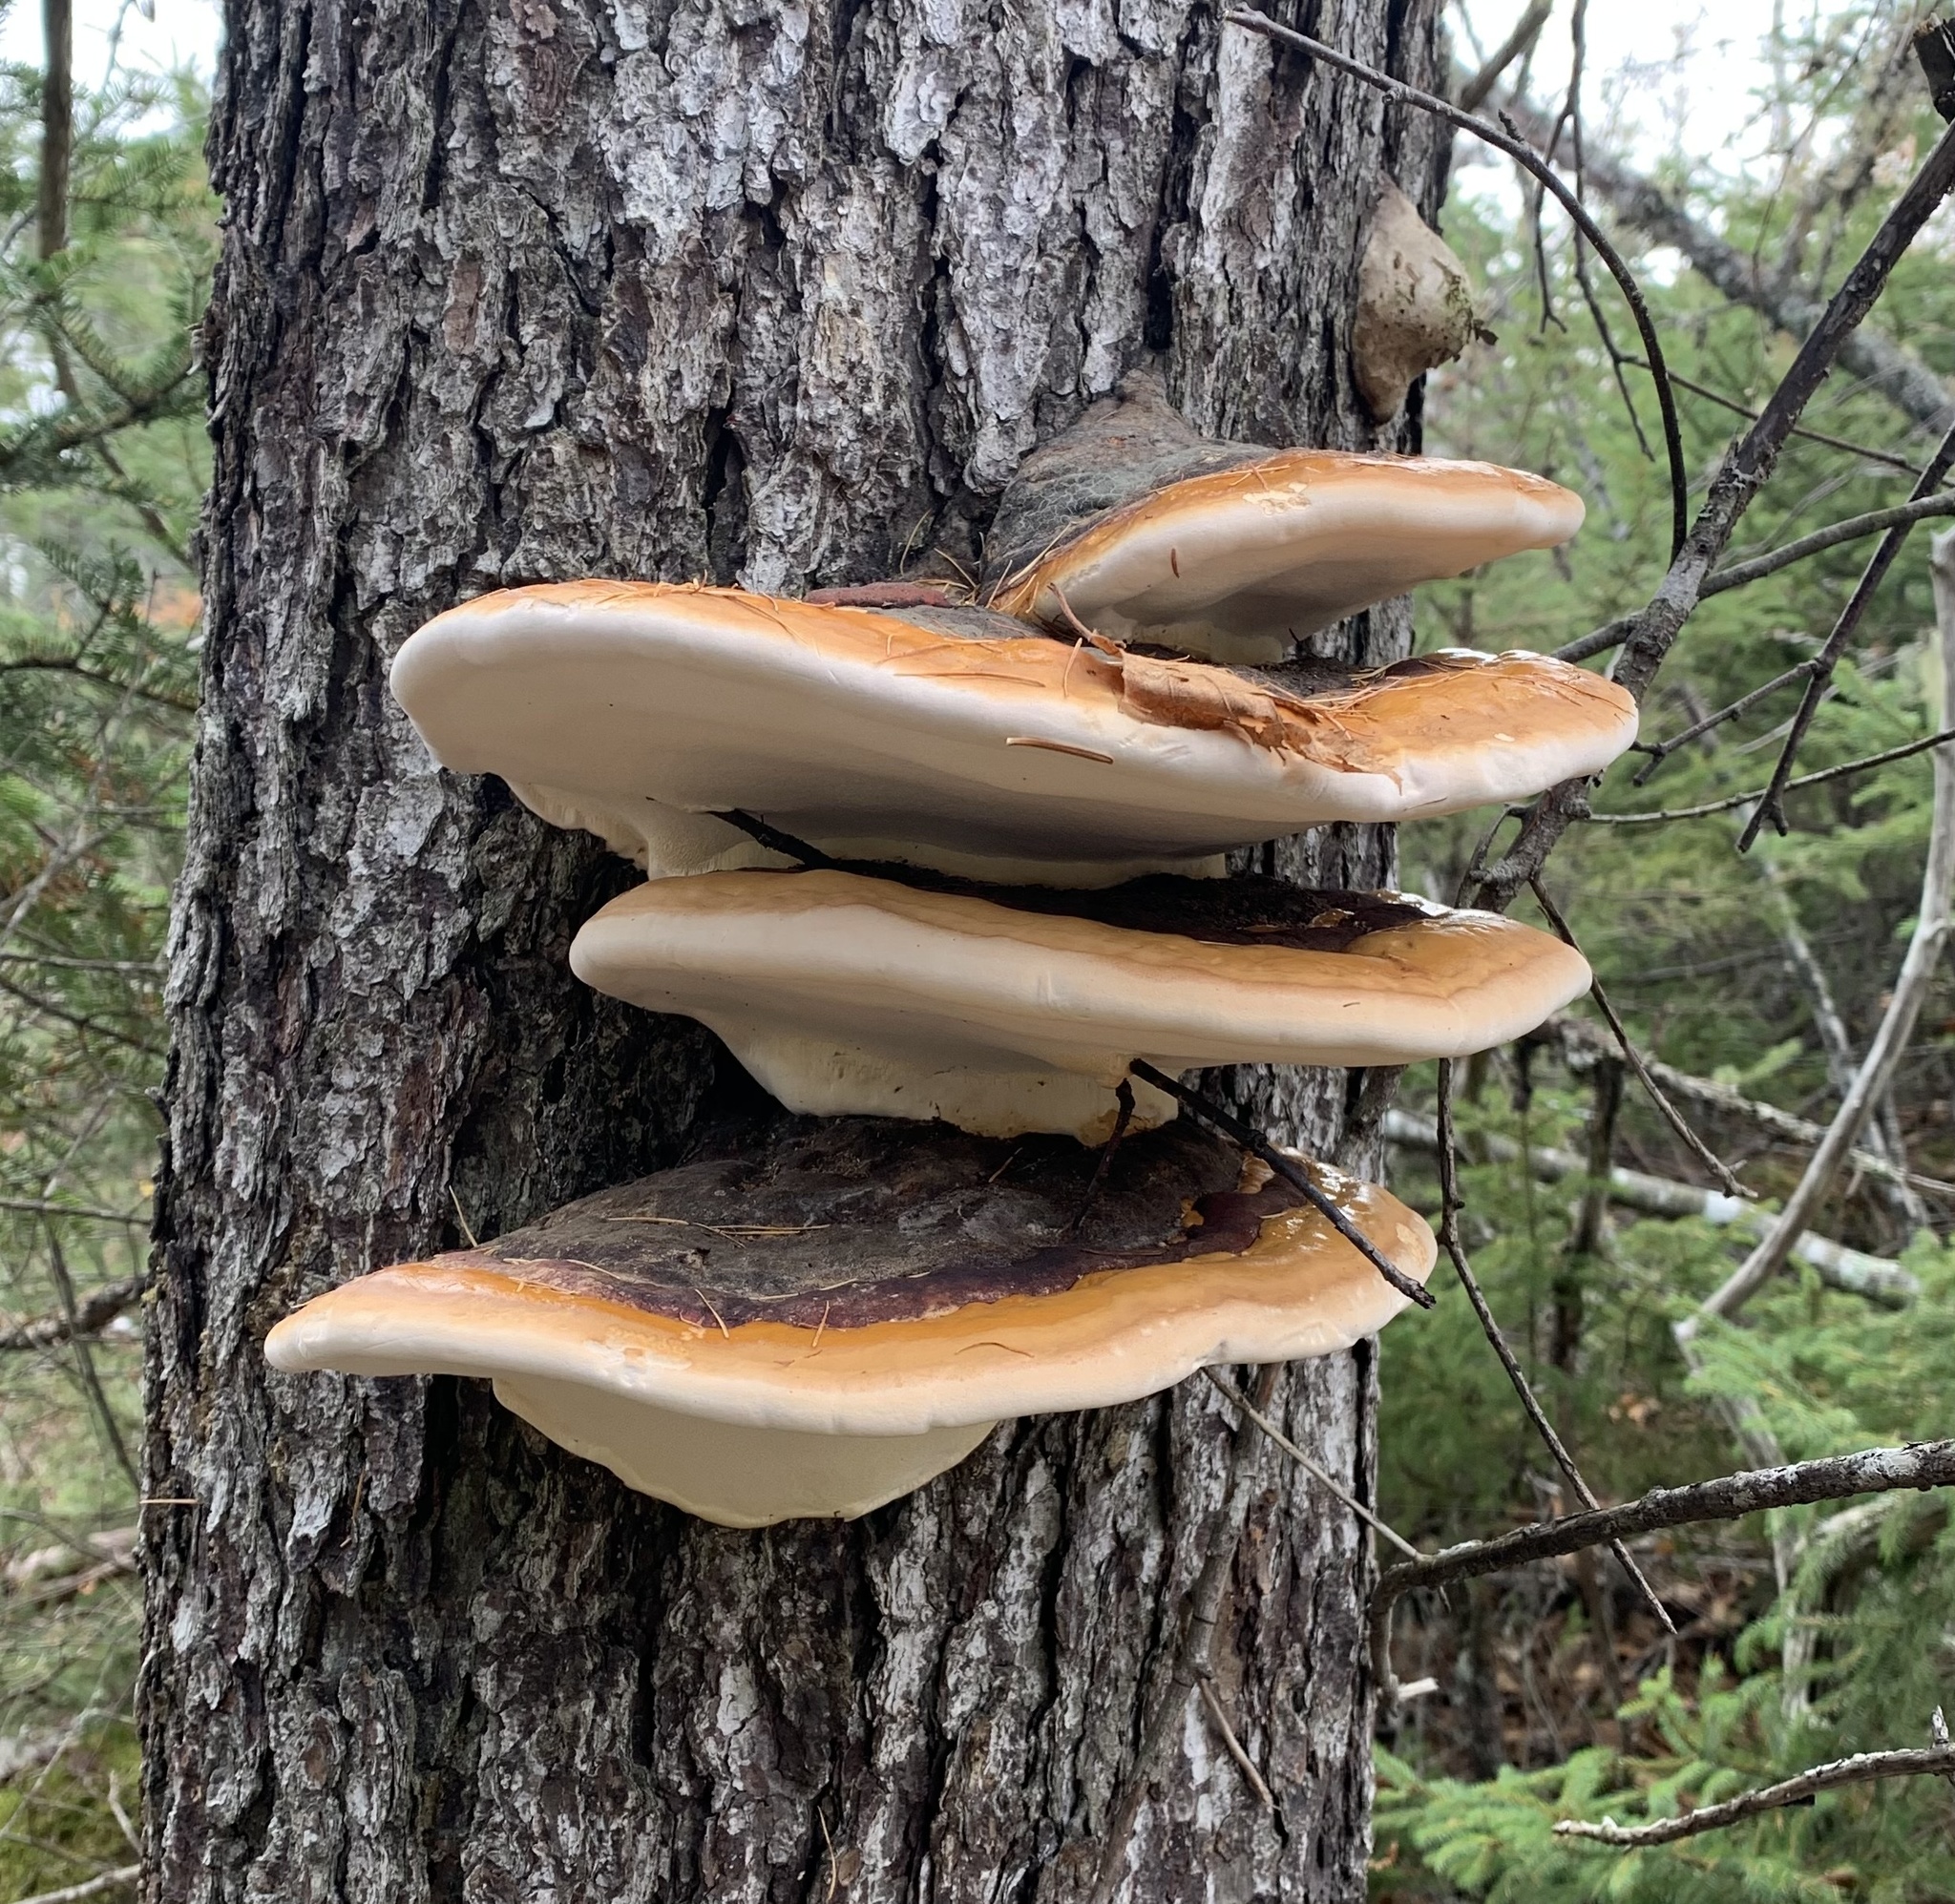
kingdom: Fungi
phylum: Basidiomycota
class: Agaricomycetes
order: Polyporales
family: Fomitopsidaceae
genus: Fomitopsis
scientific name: Fomitopsis mounceae
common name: Northern red belt
